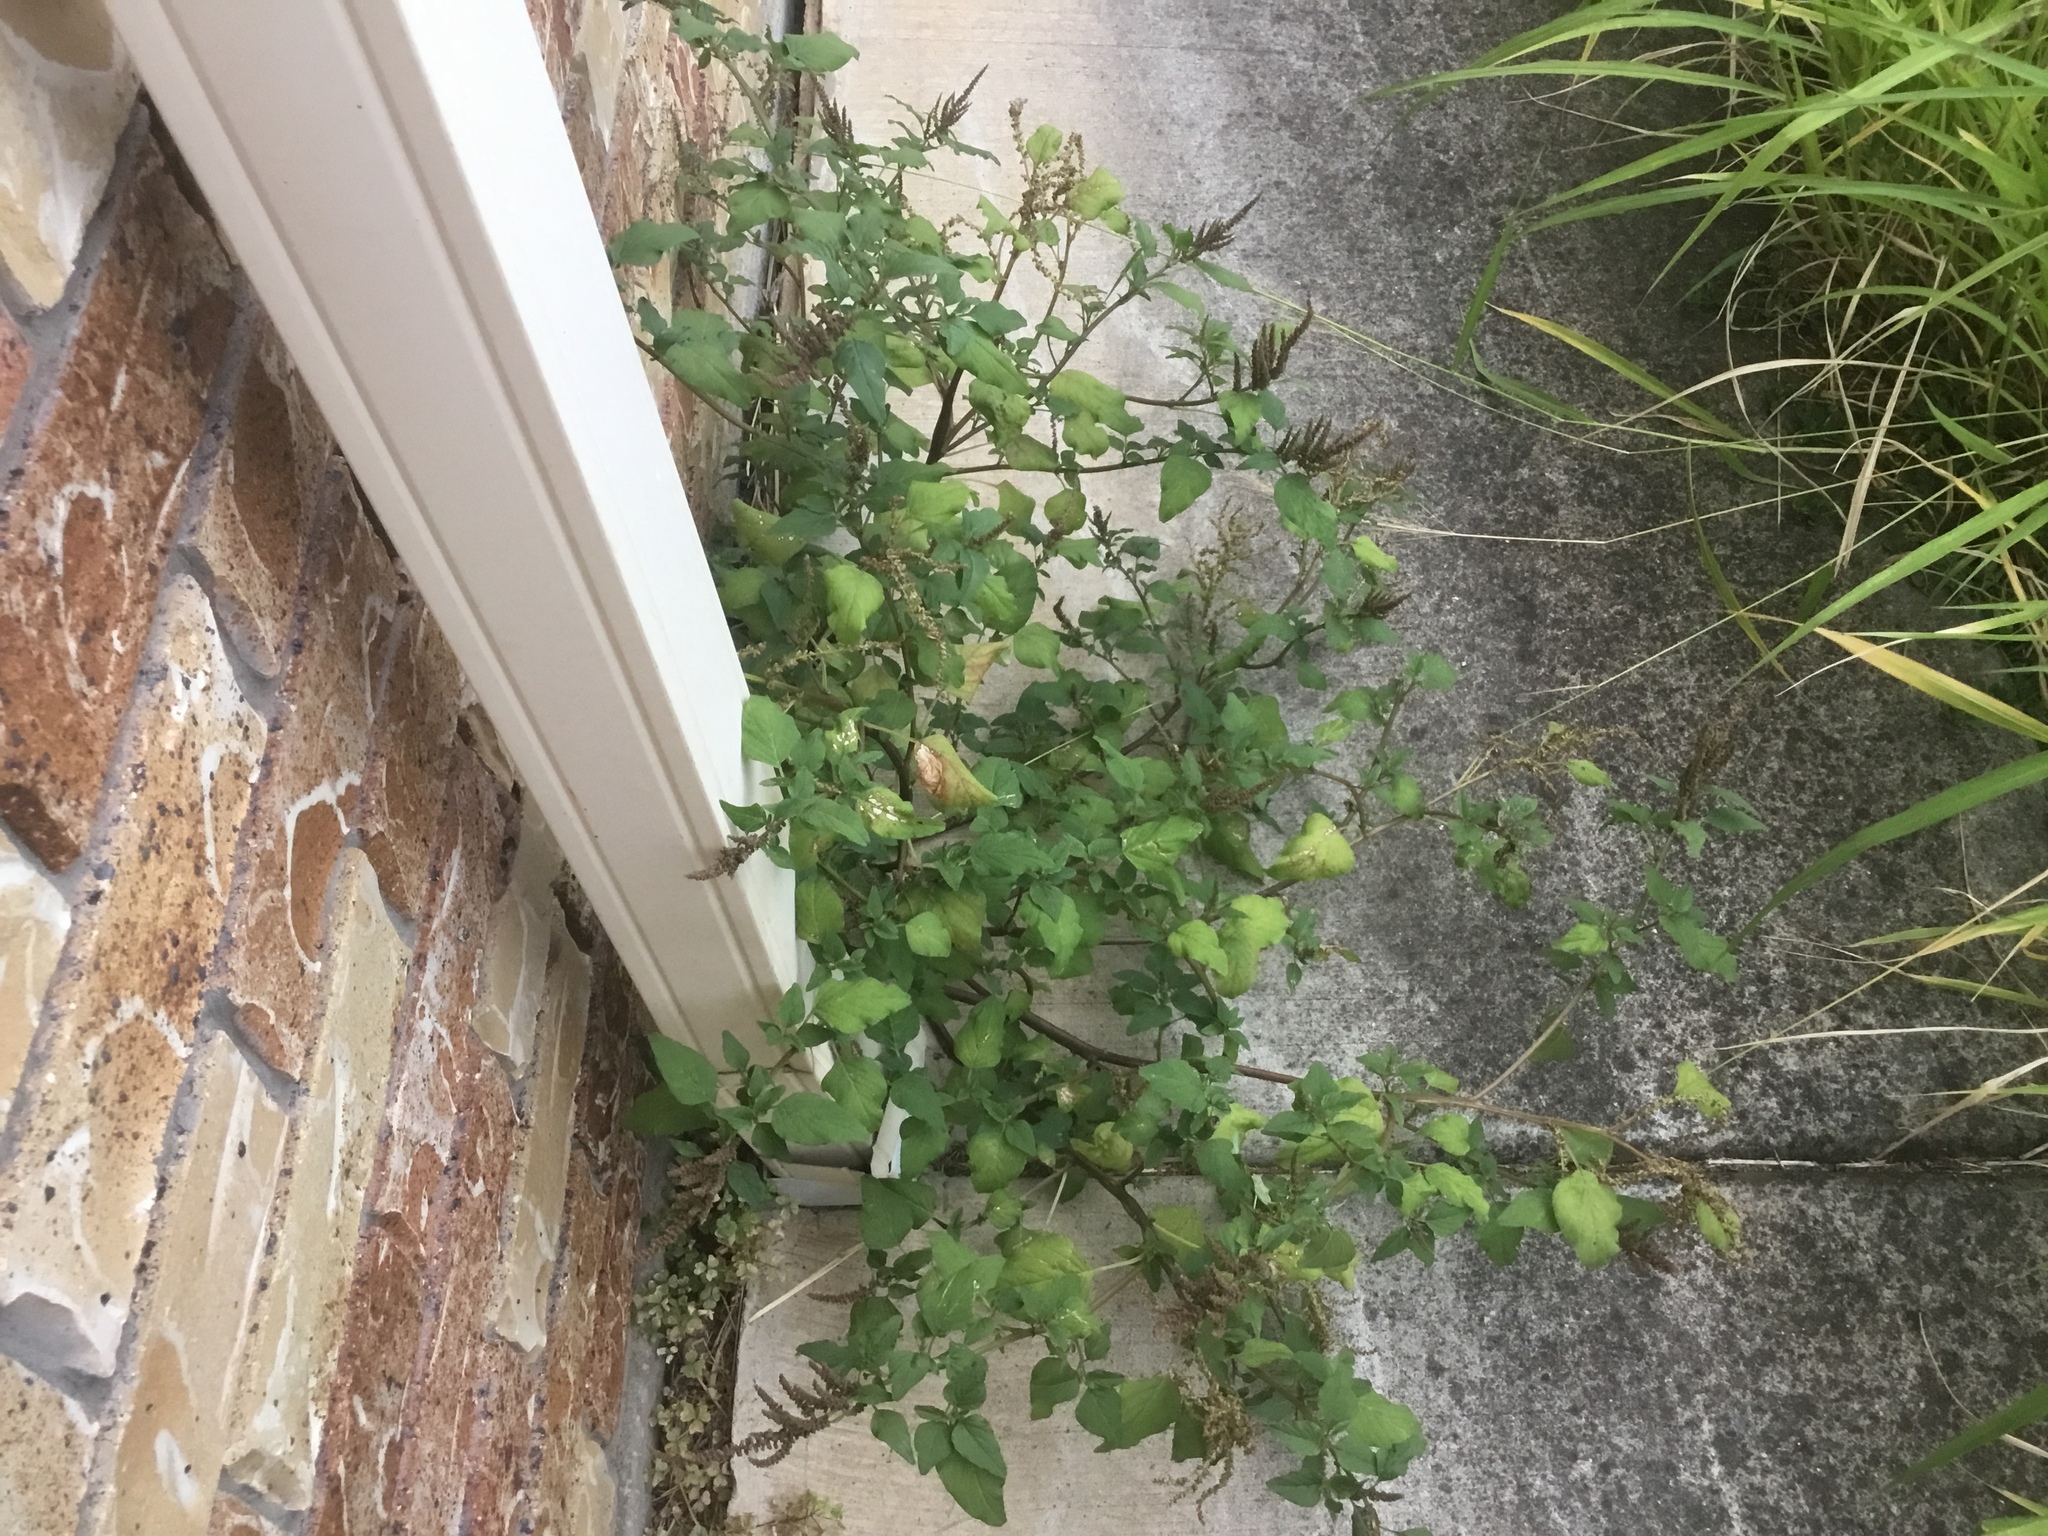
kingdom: Plantae
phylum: Tracheophyta
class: Magnoliopsida
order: Caryophyllales
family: Amaranthaceae
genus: Amaranthus
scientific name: Amaranthus viridis
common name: Slender amaranth
